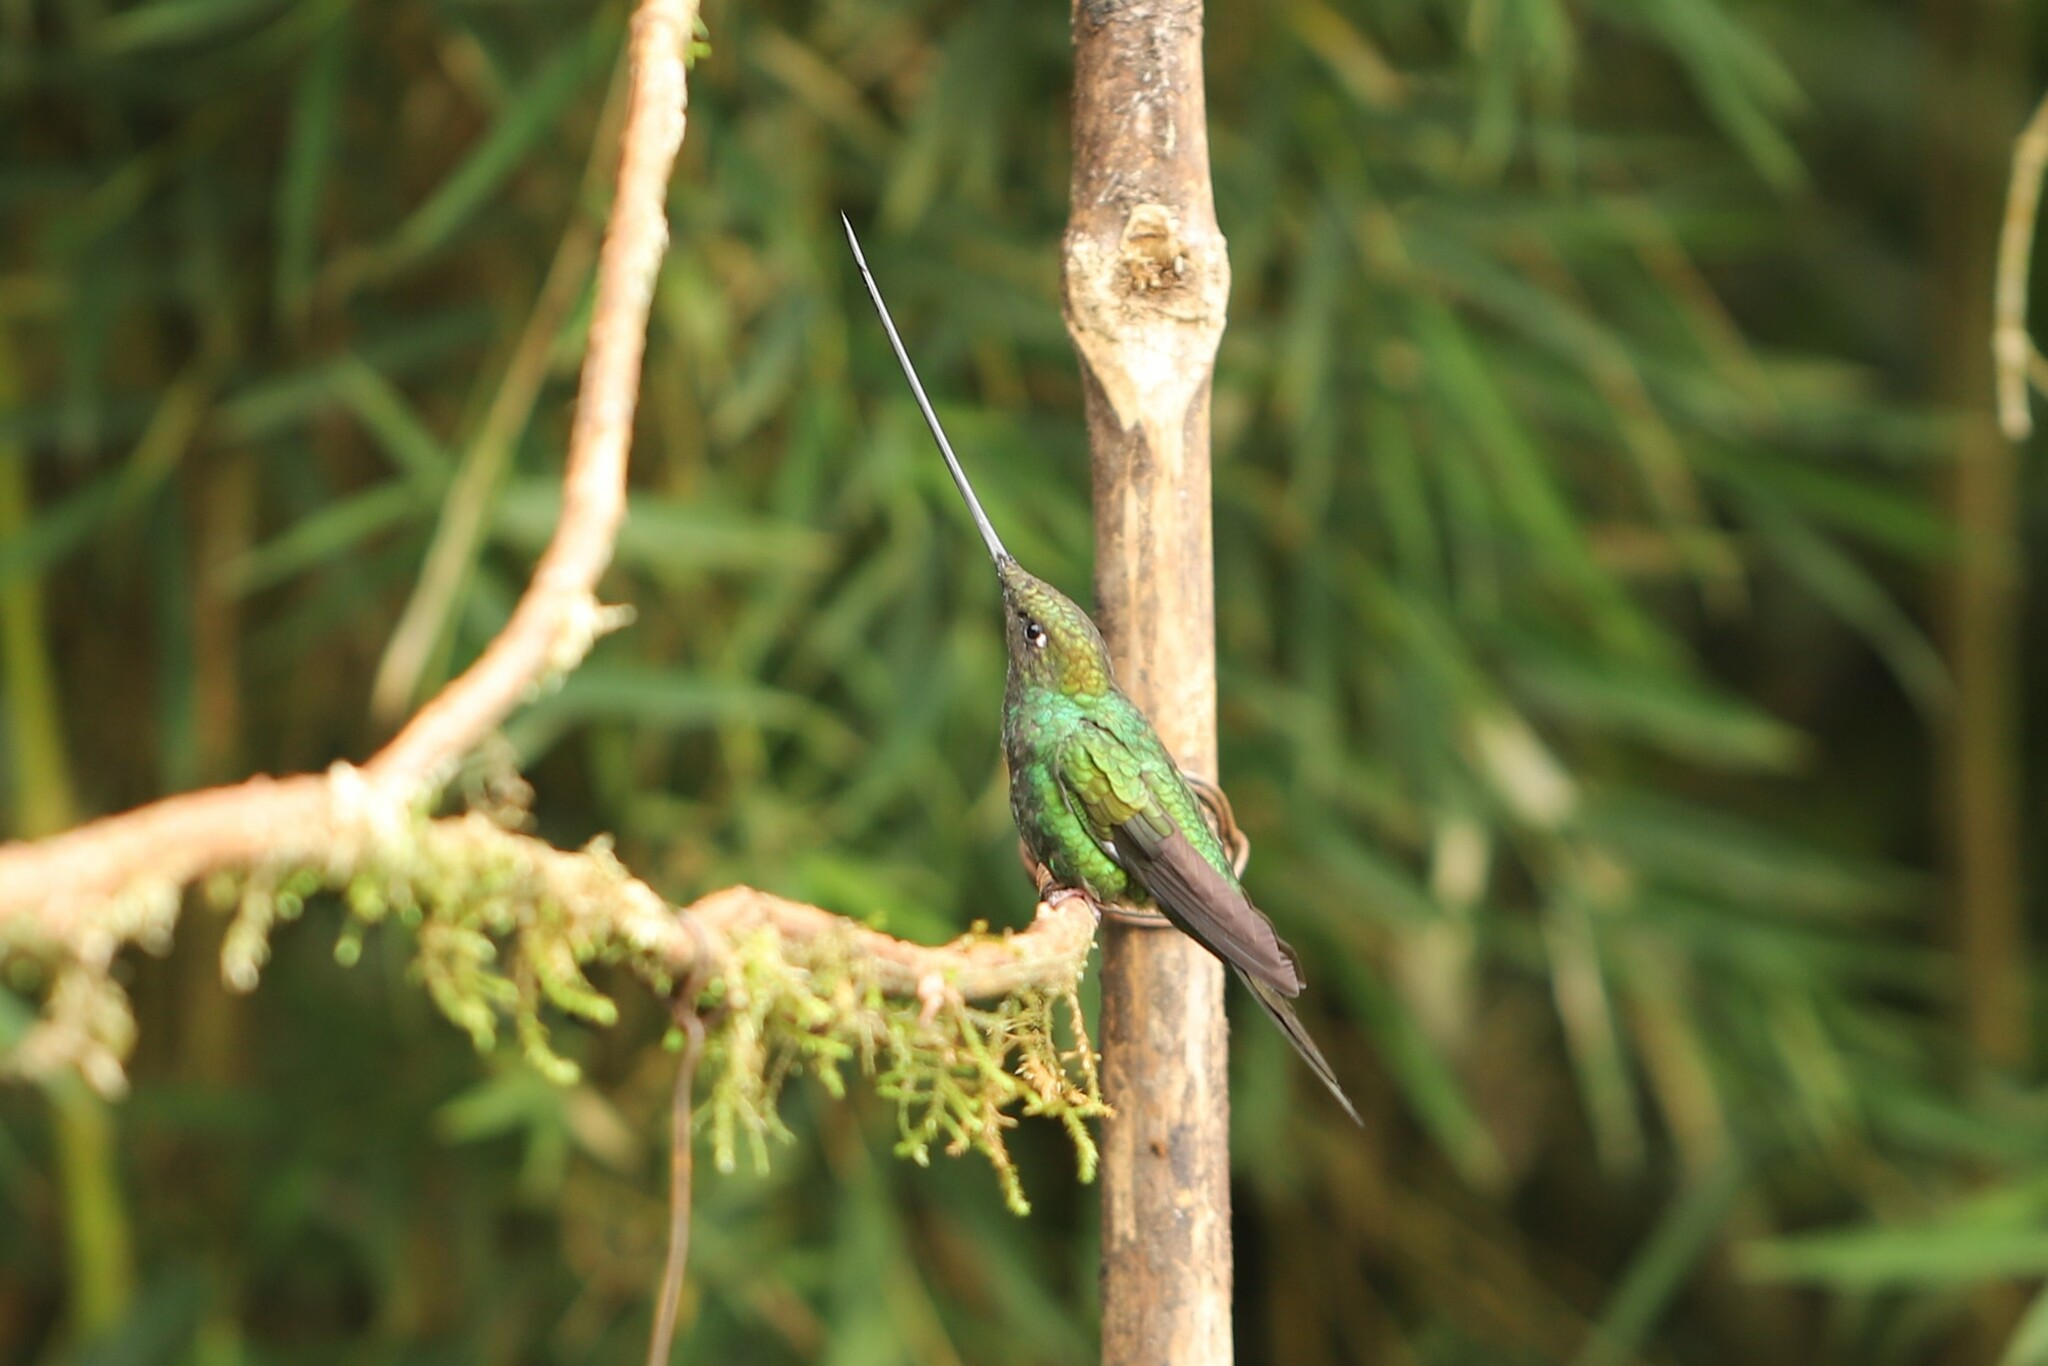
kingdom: Animalia
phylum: Chordata
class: Aves
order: Apodiformes
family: Trochilidae
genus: Ensifera
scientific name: Ensifera ensifera
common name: Sword-billed hummingbird
